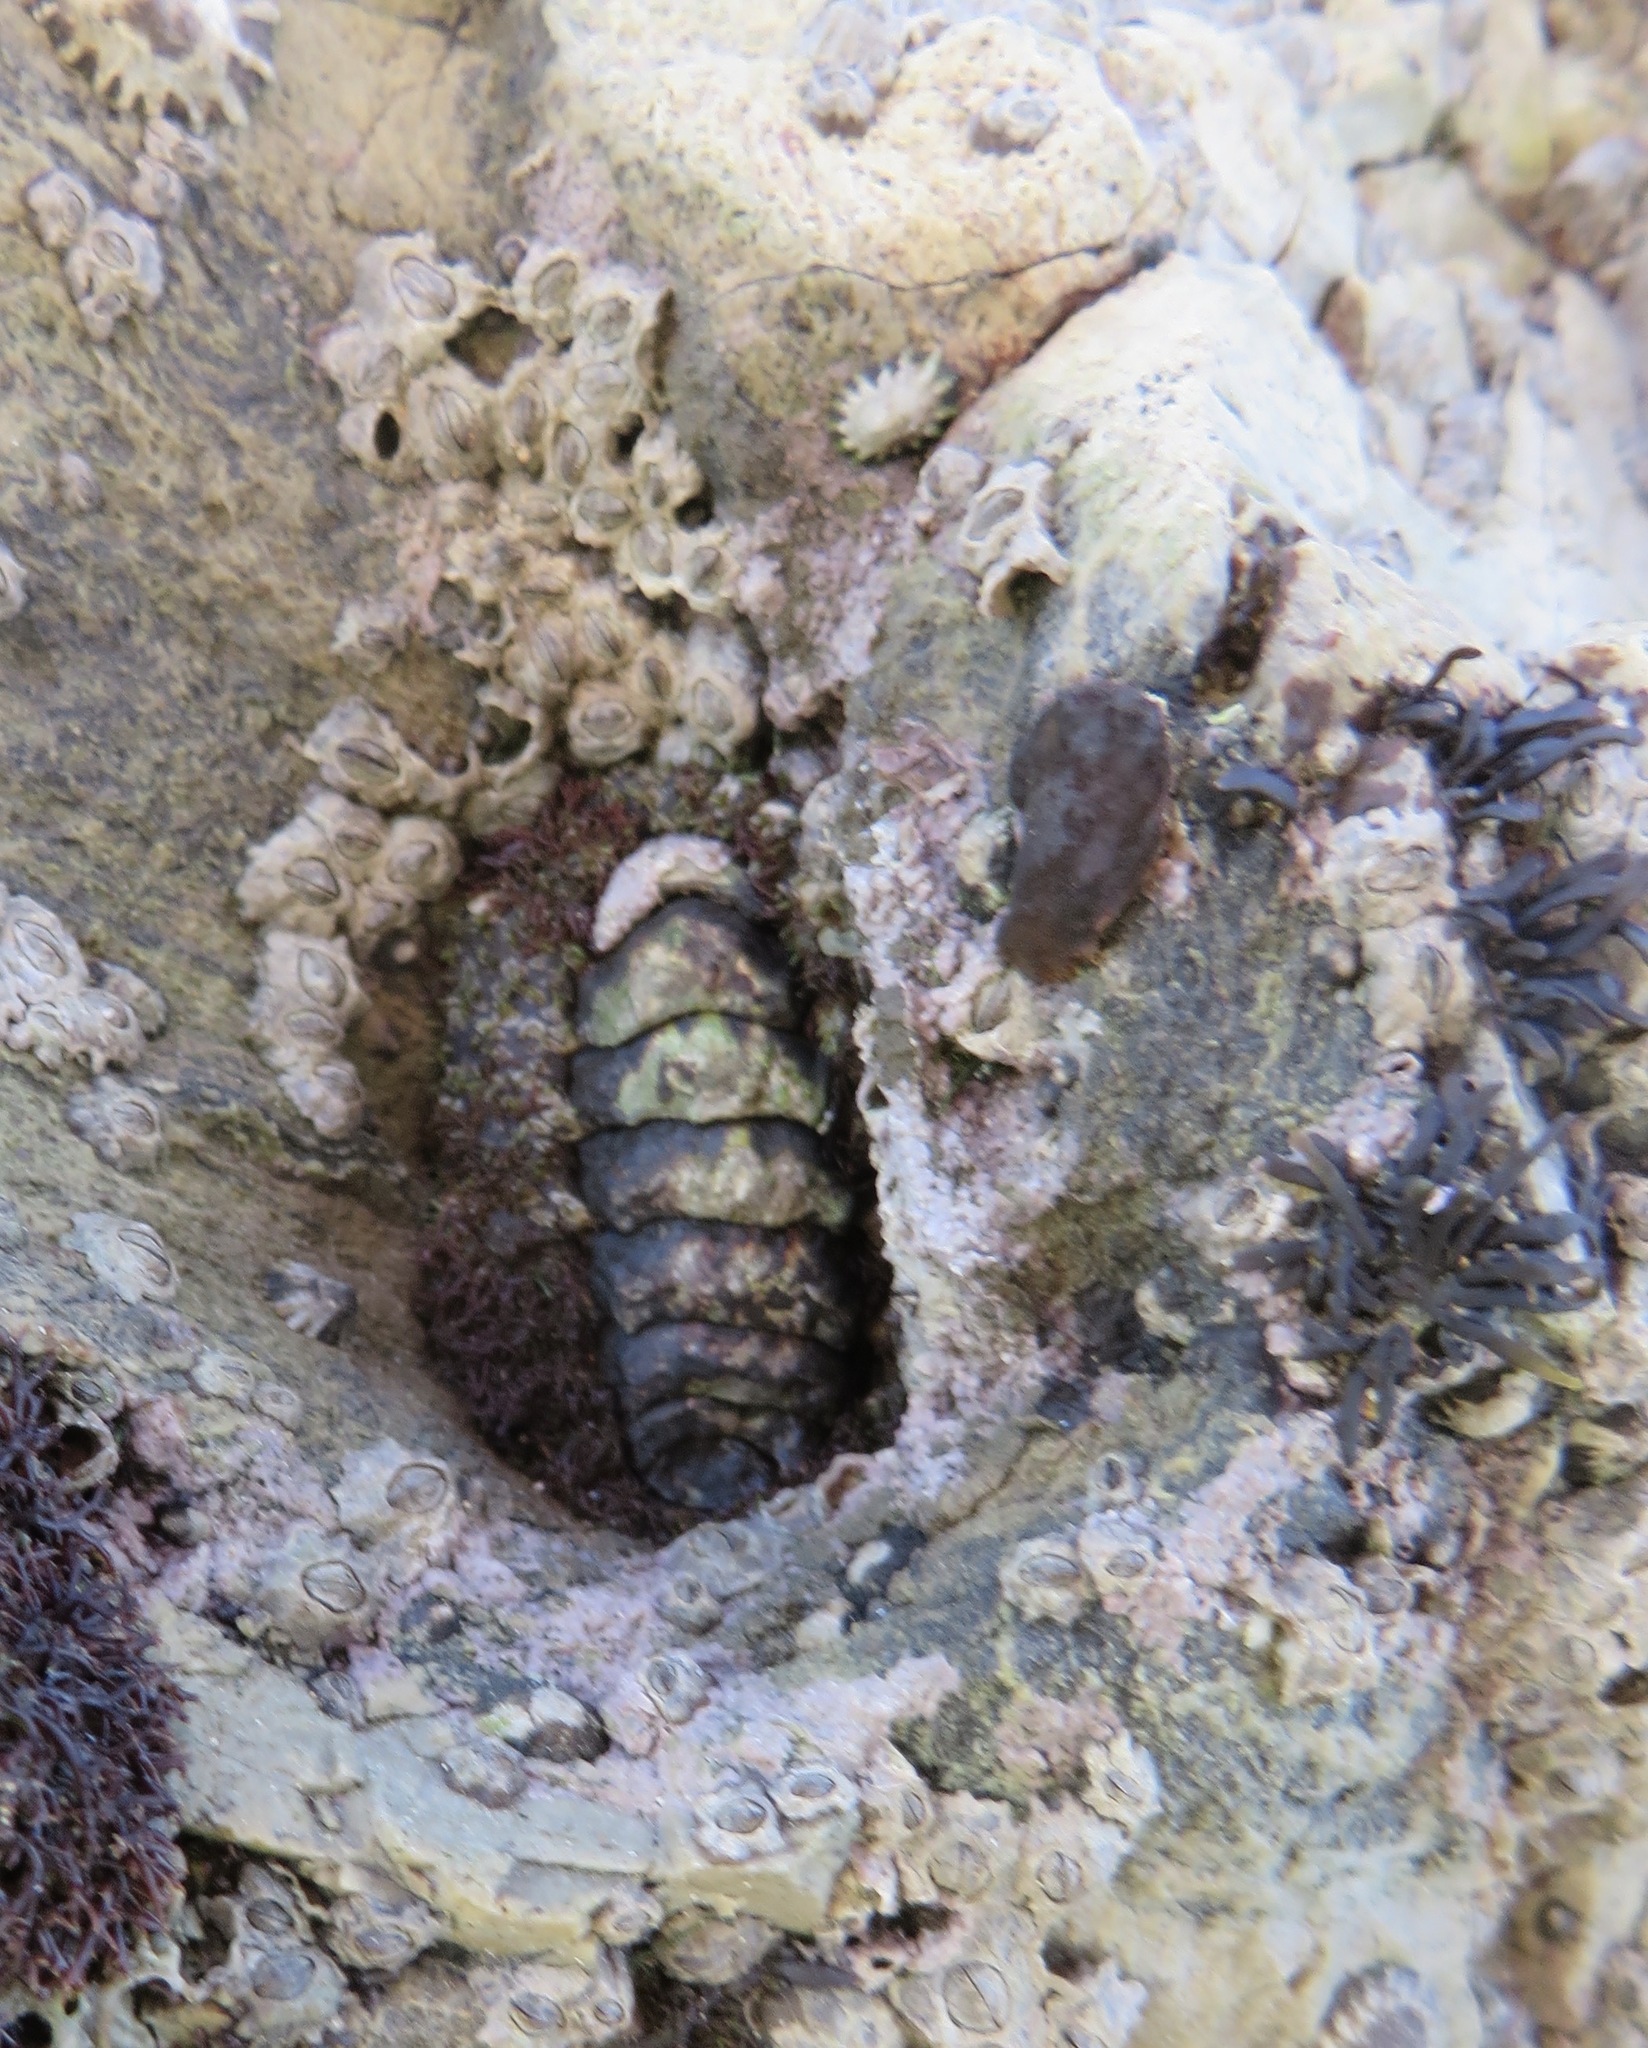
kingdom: Animalia
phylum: Mollusca
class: Polyplacophora
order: Chitonida
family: Tonicellidae
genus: Nuttallina
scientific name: Nuttallina californica
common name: California nuttall chiton
